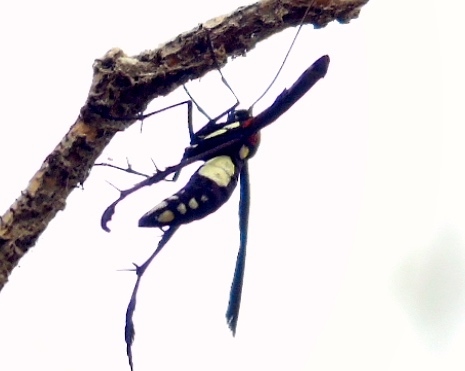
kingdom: Animalia
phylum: Arthropoda
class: Insecta
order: Lepidoptera
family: Pterophoridae
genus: Hellinsia
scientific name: Hellinsia chamelai
